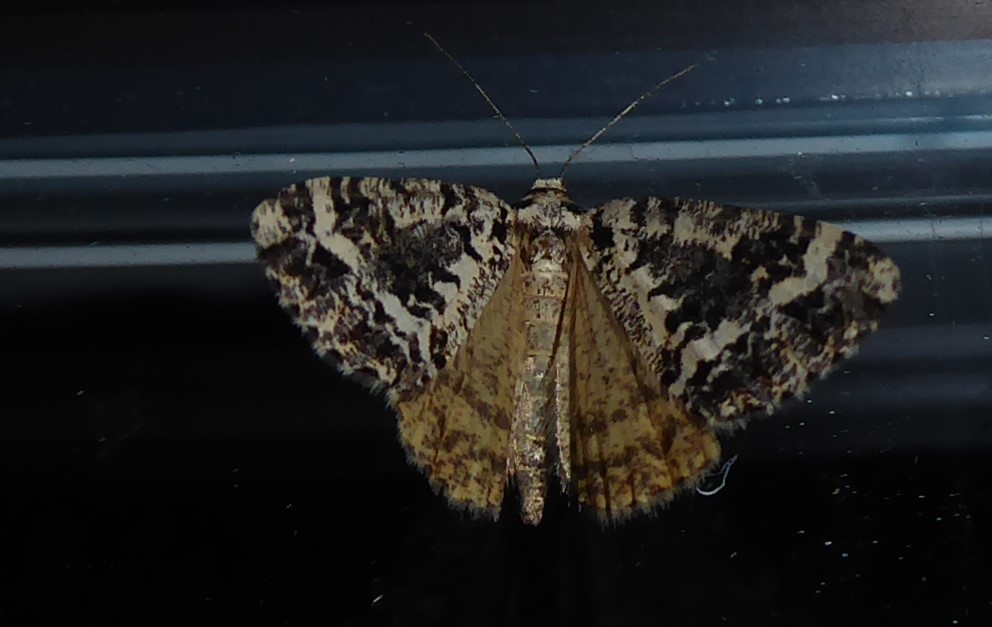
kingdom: Animalia
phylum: Arthropoda
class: Insecta
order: Lepidoptera
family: Geometridae
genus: Pseudocoremia
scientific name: Pseudocoremia leucelaea
